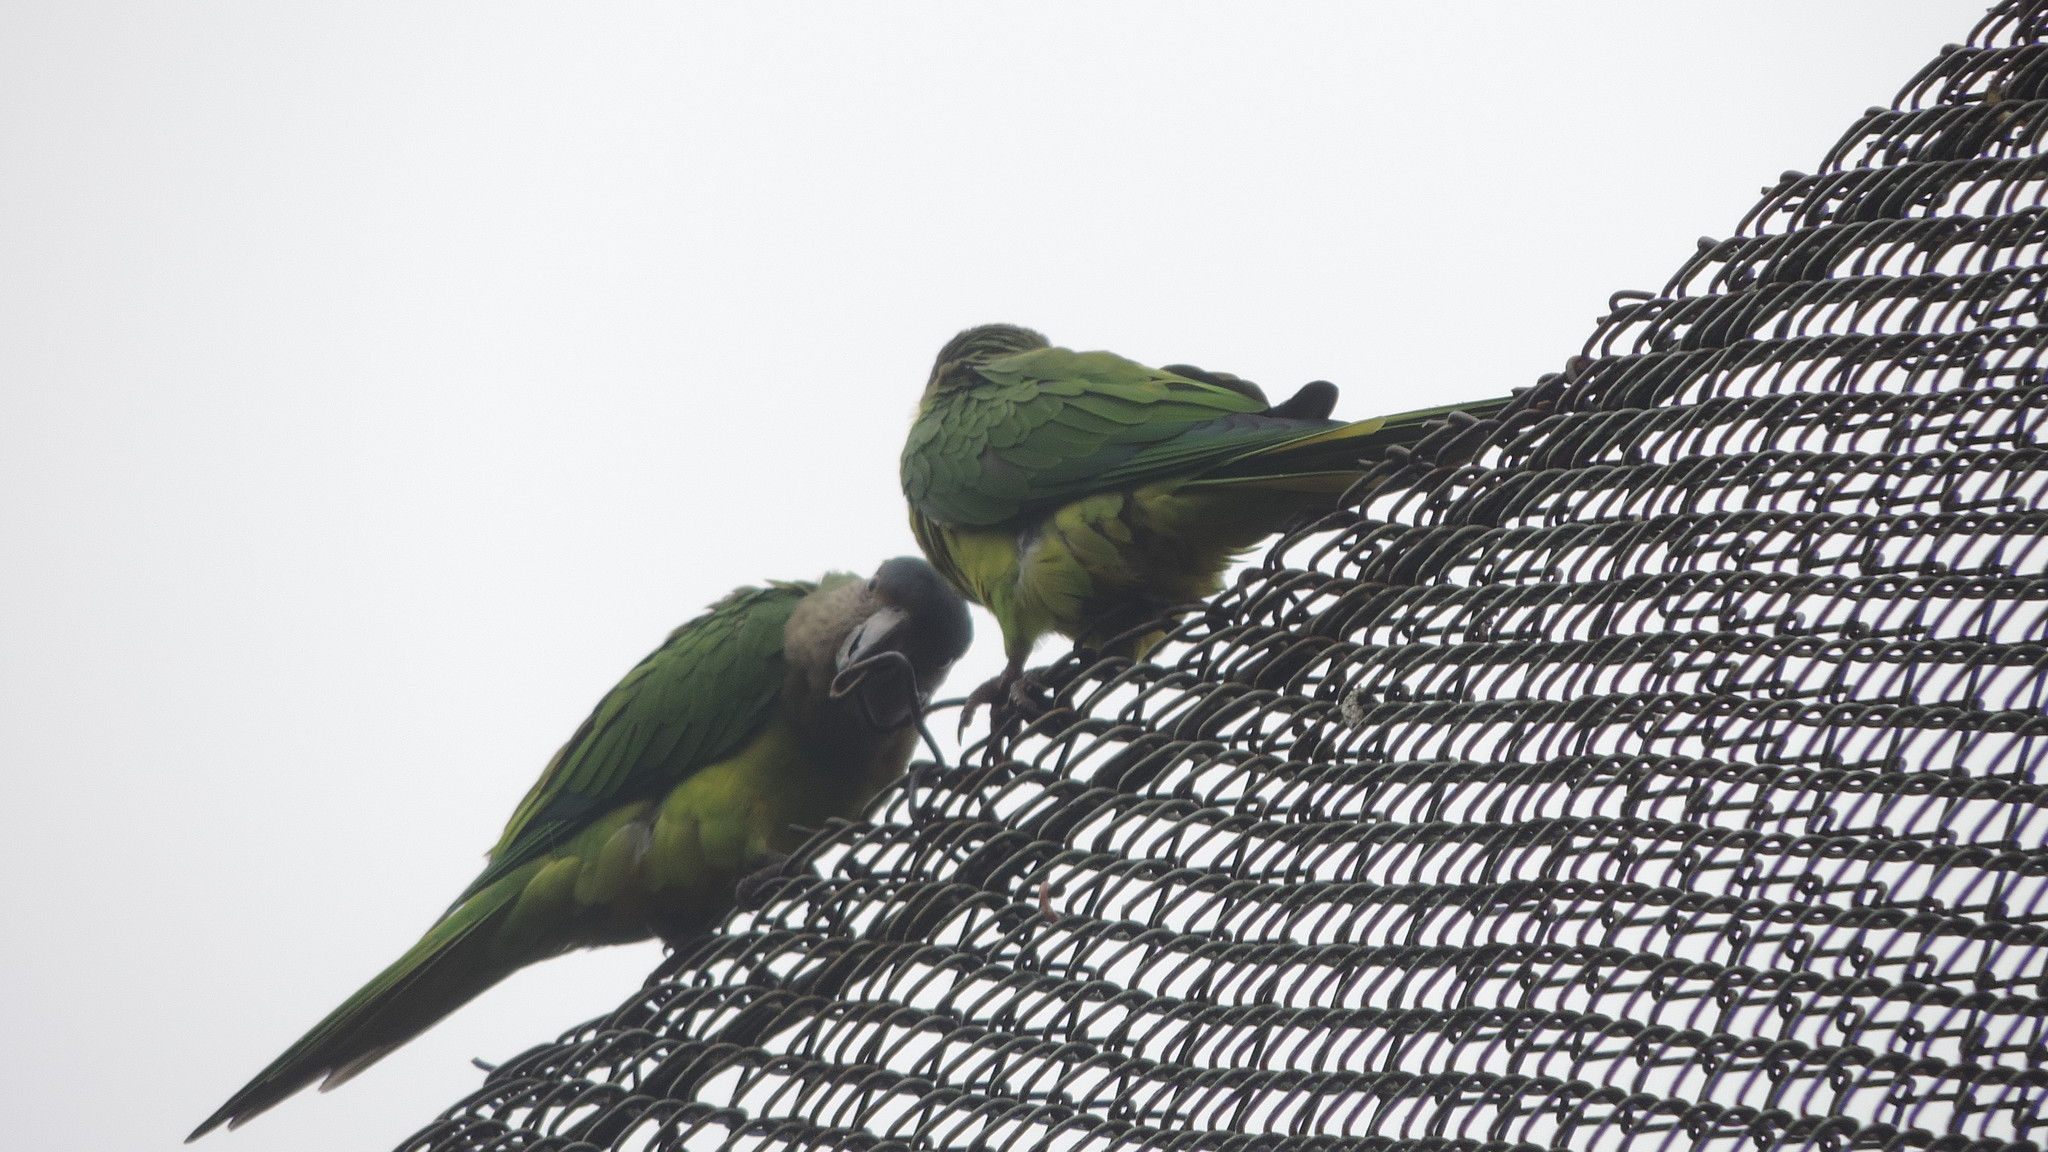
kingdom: Animalia
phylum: Chordata
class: Aves
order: Psittaciformes
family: Psittacidae
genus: Aratinga
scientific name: Aratinga pertinax
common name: Brown-throated parakeet
